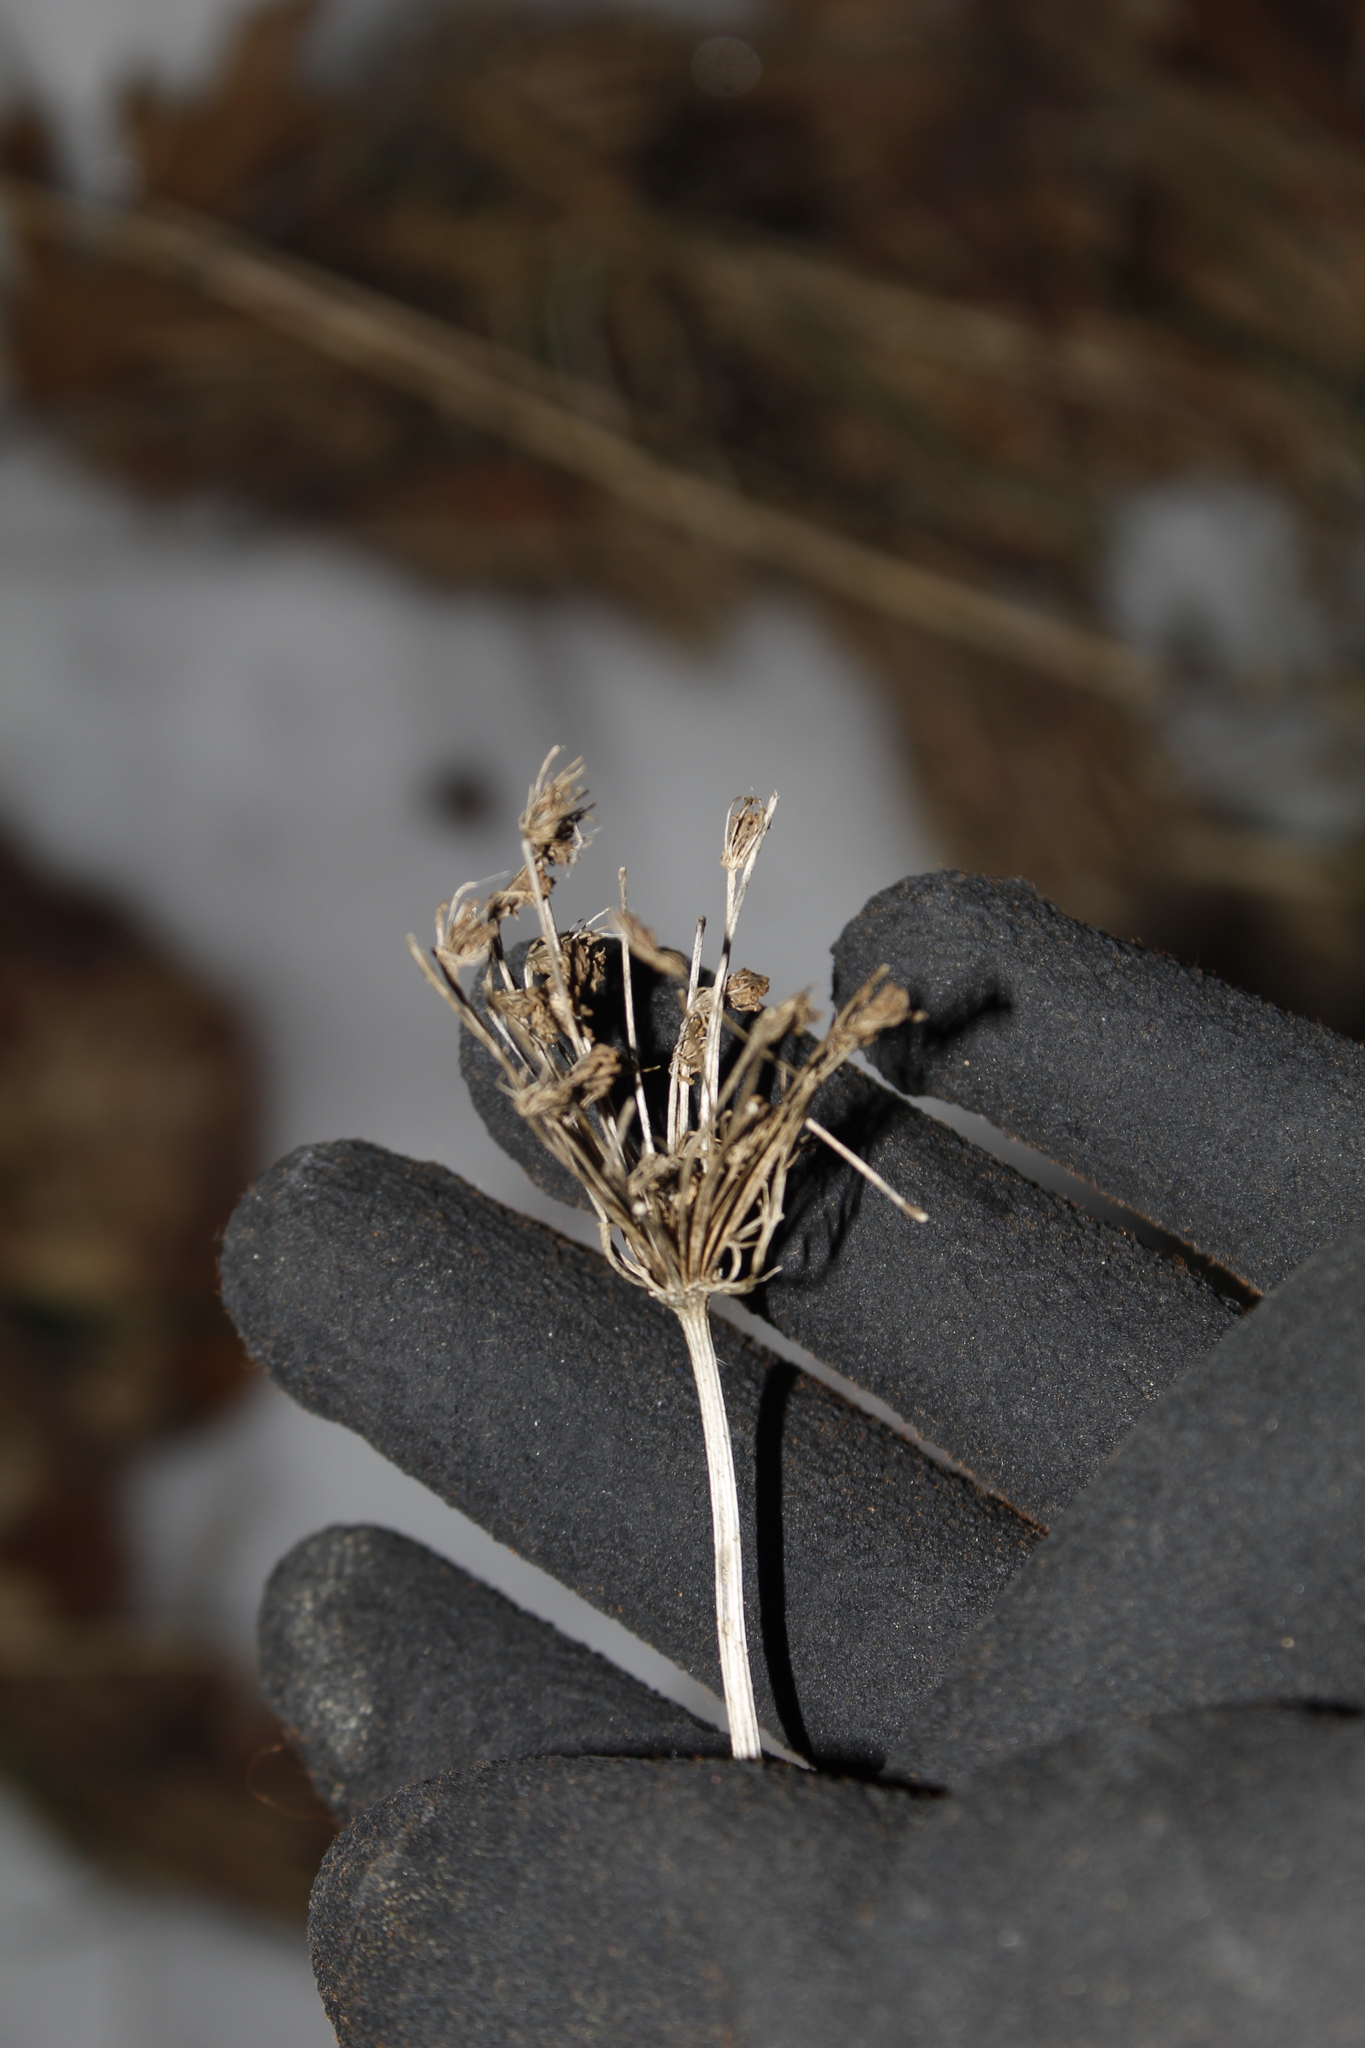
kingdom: Plantae
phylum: Tracheophyta
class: Magnoliopsida
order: Apiales
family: Apiaceae
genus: Daucus
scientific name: Daucus carota
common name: Wild carrot
